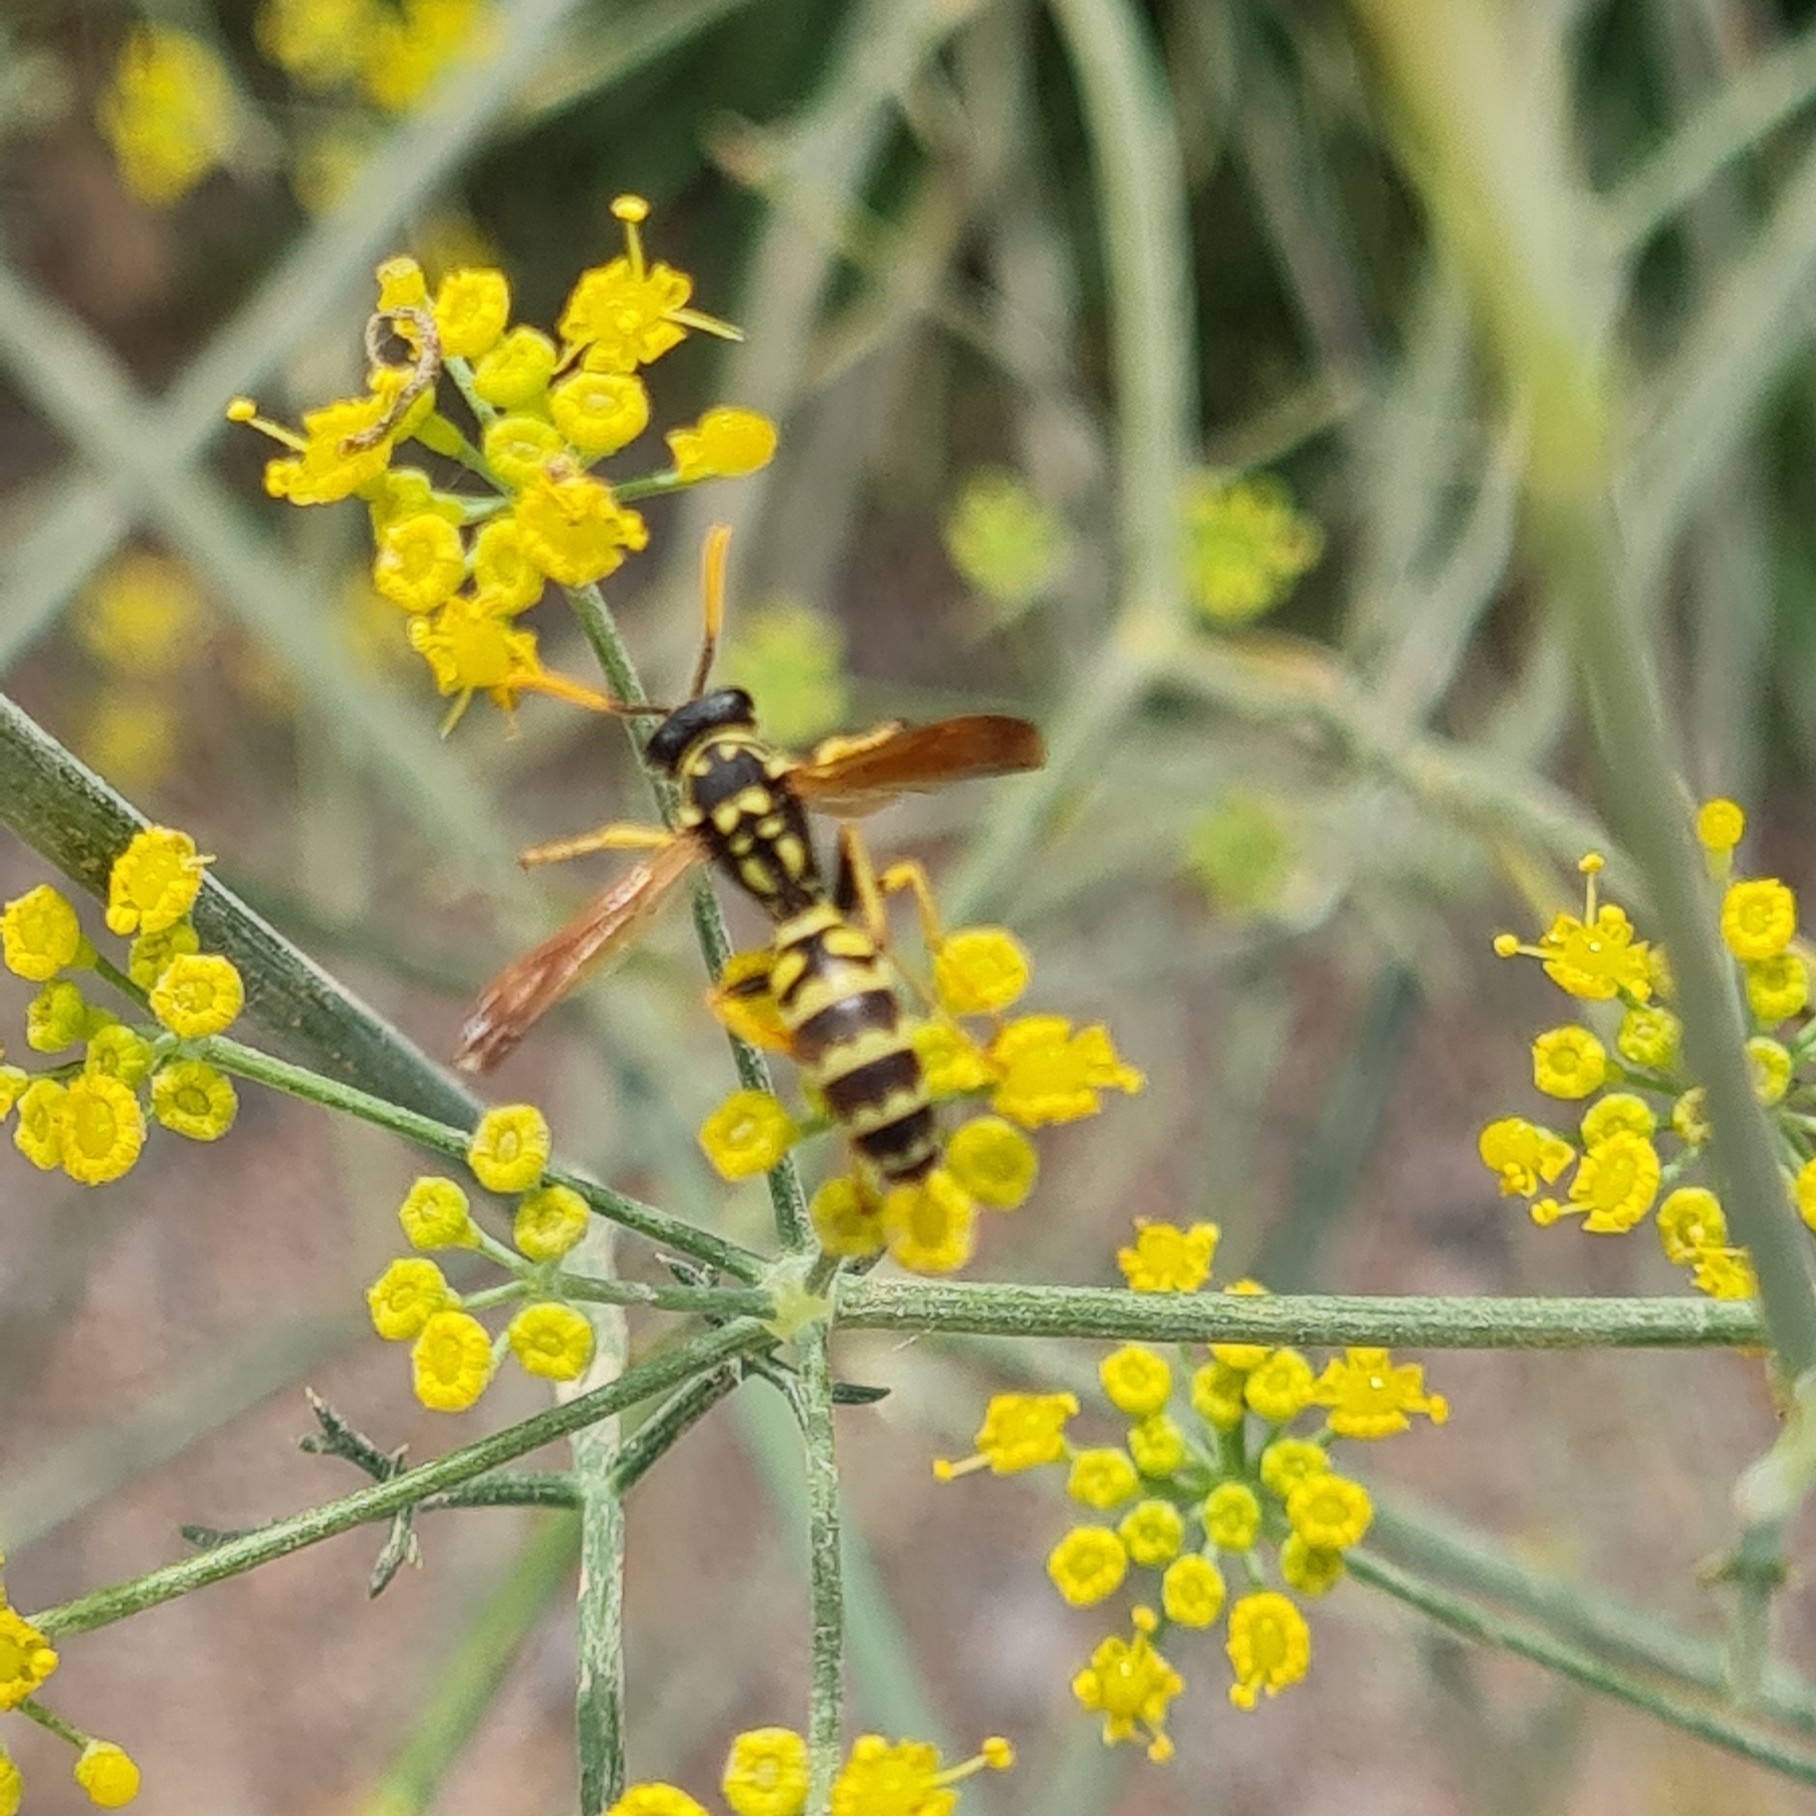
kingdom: Animalia
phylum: Arthropoda
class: Insecta
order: Hymenoptera
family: Eumenidae
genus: Polistes
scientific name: Polistes dominula
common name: Paper wasp
